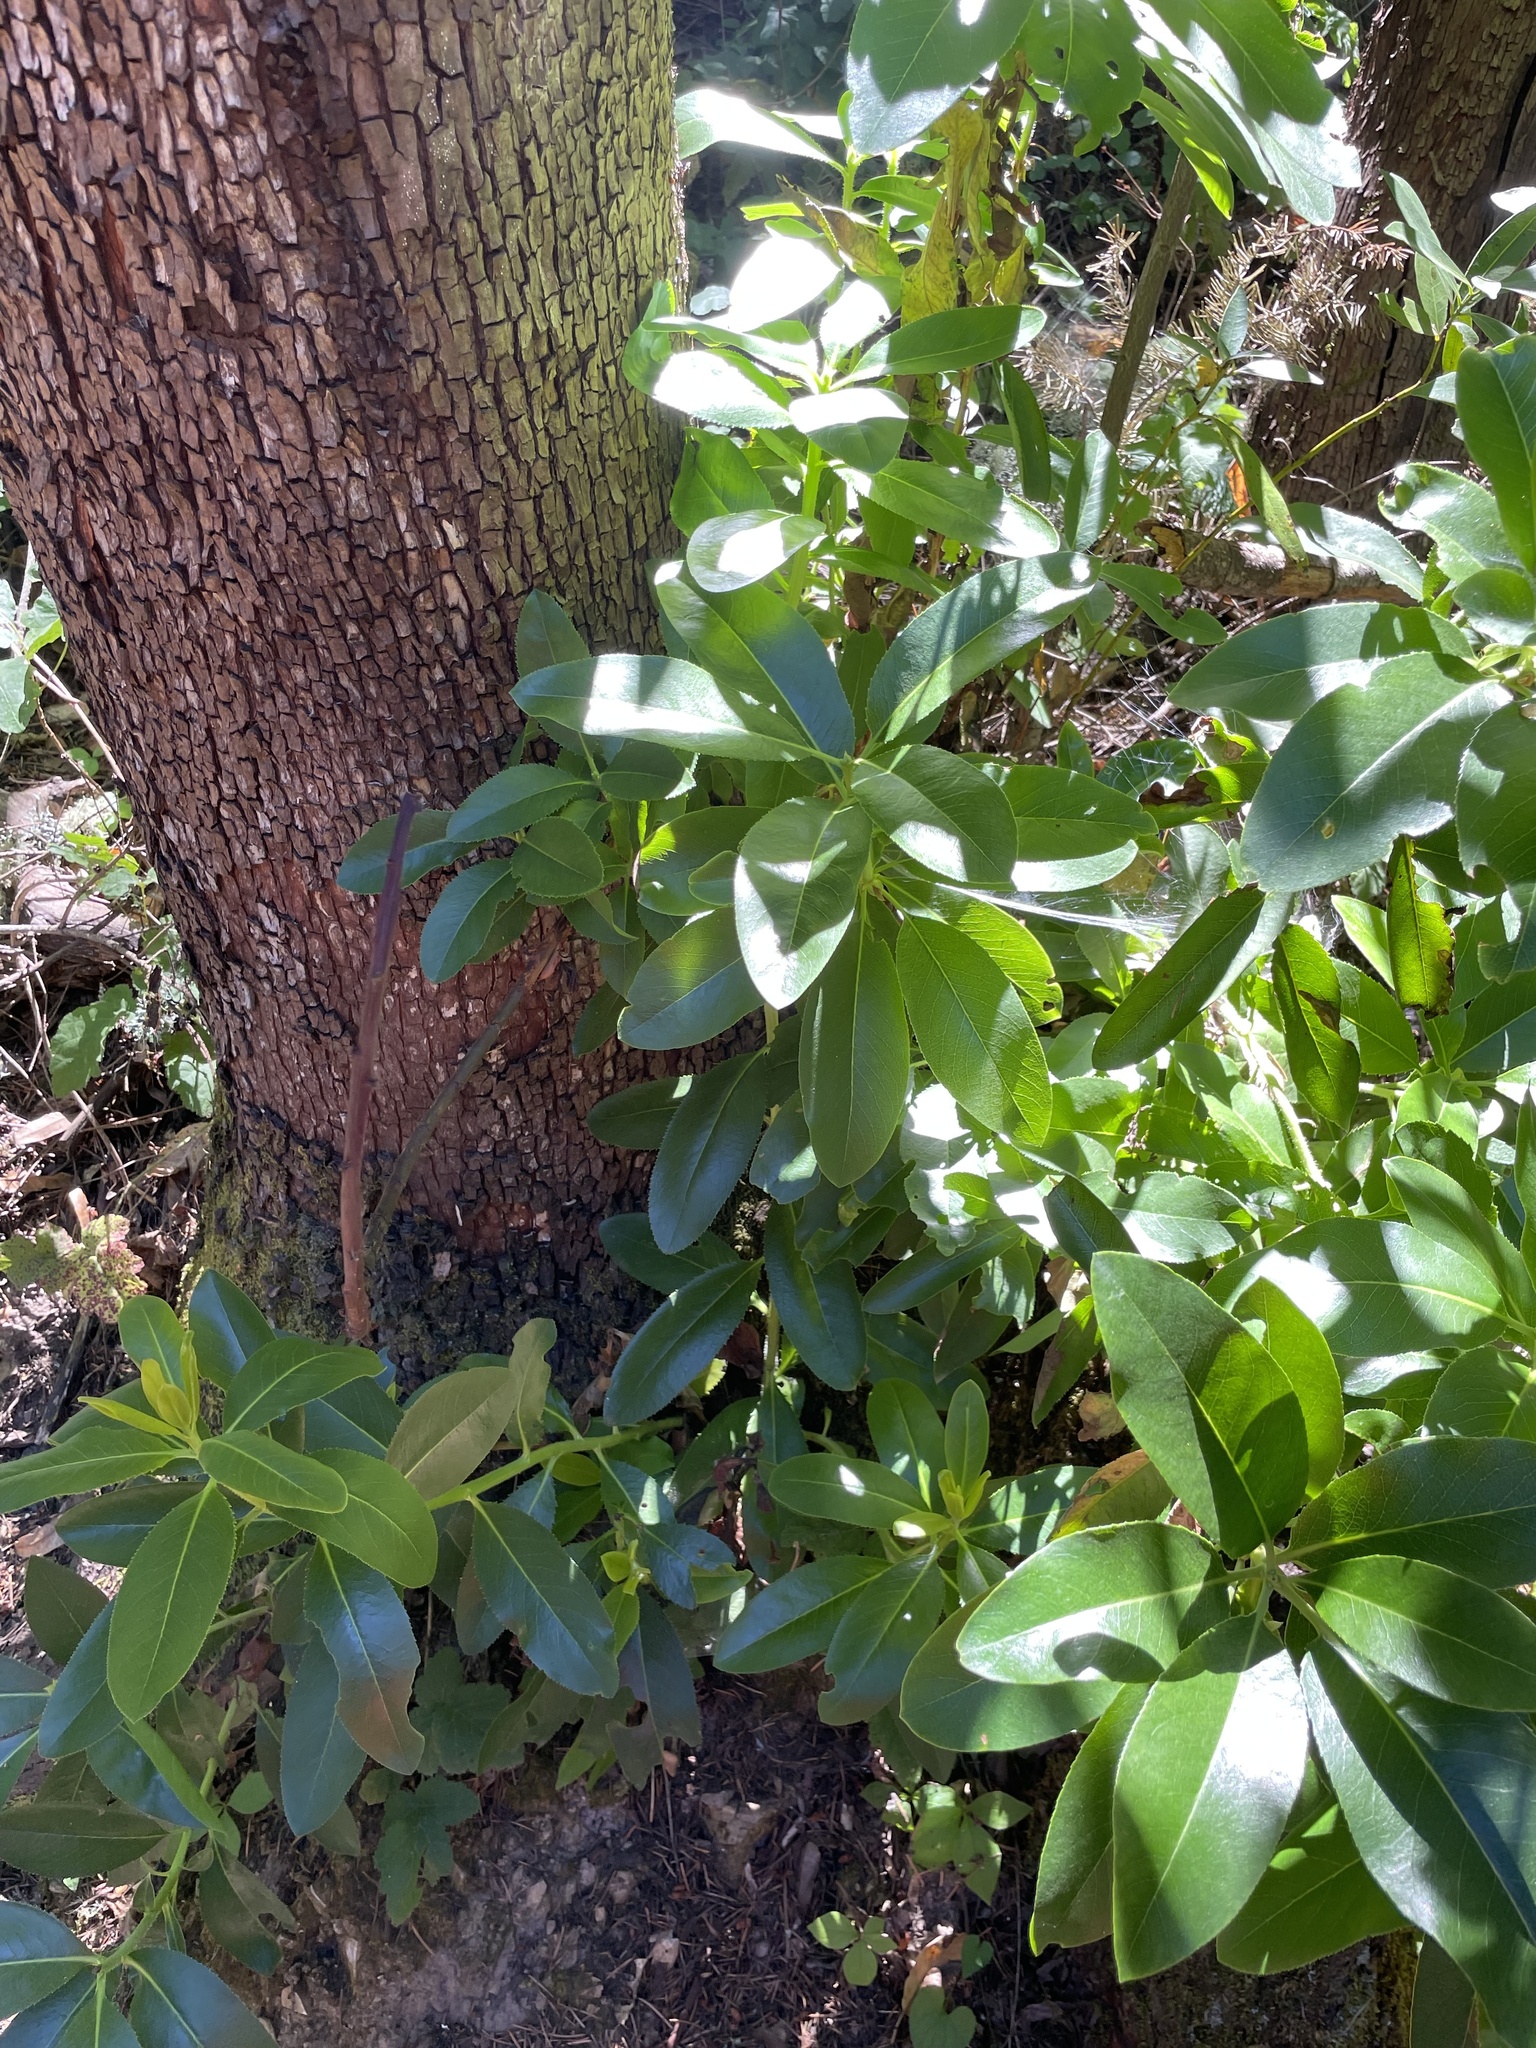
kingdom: Plantae
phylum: Tracheophyta
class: Magnoliopsida
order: Ericales
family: Ericaceae
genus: Arbutus
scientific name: Arbutus menziesii
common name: Pacific madrone
